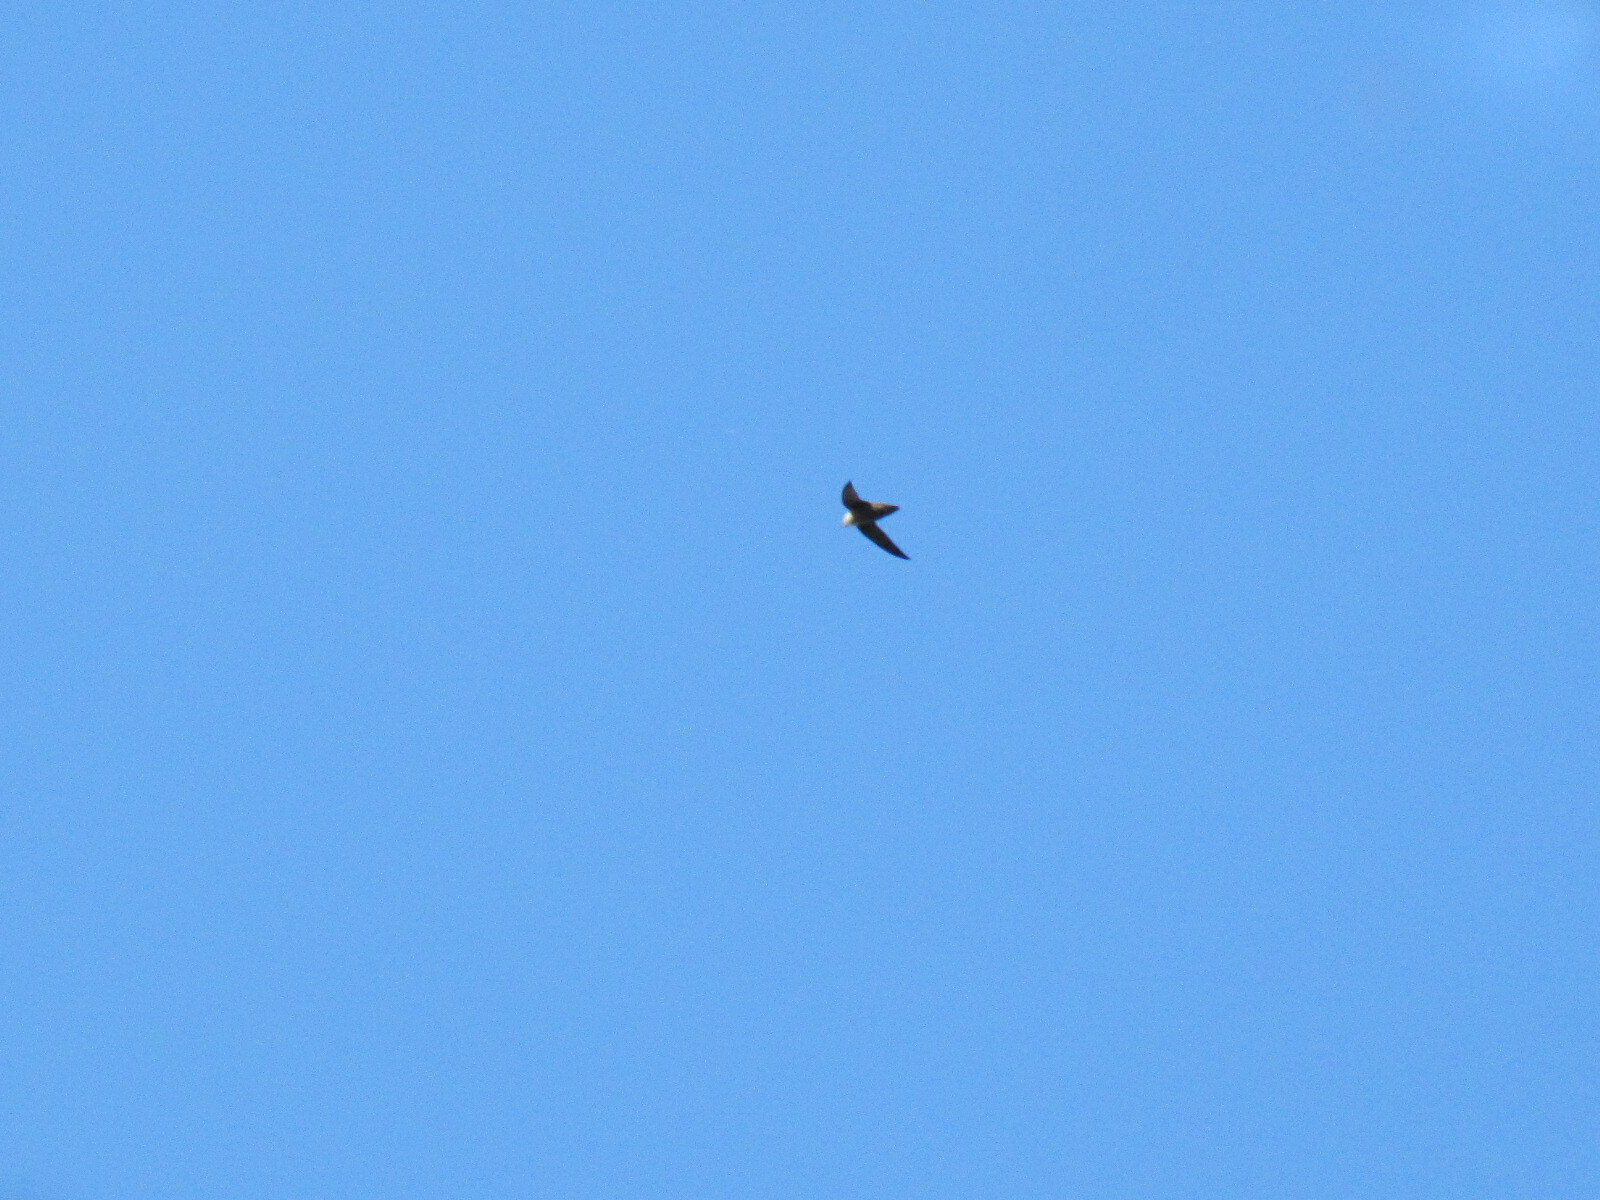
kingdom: Animalia
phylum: Chordata
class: Aves
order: Apodiformes
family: Apodidae
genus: Chaetura
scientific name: Chaetura pelagica
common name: Chimney swift
